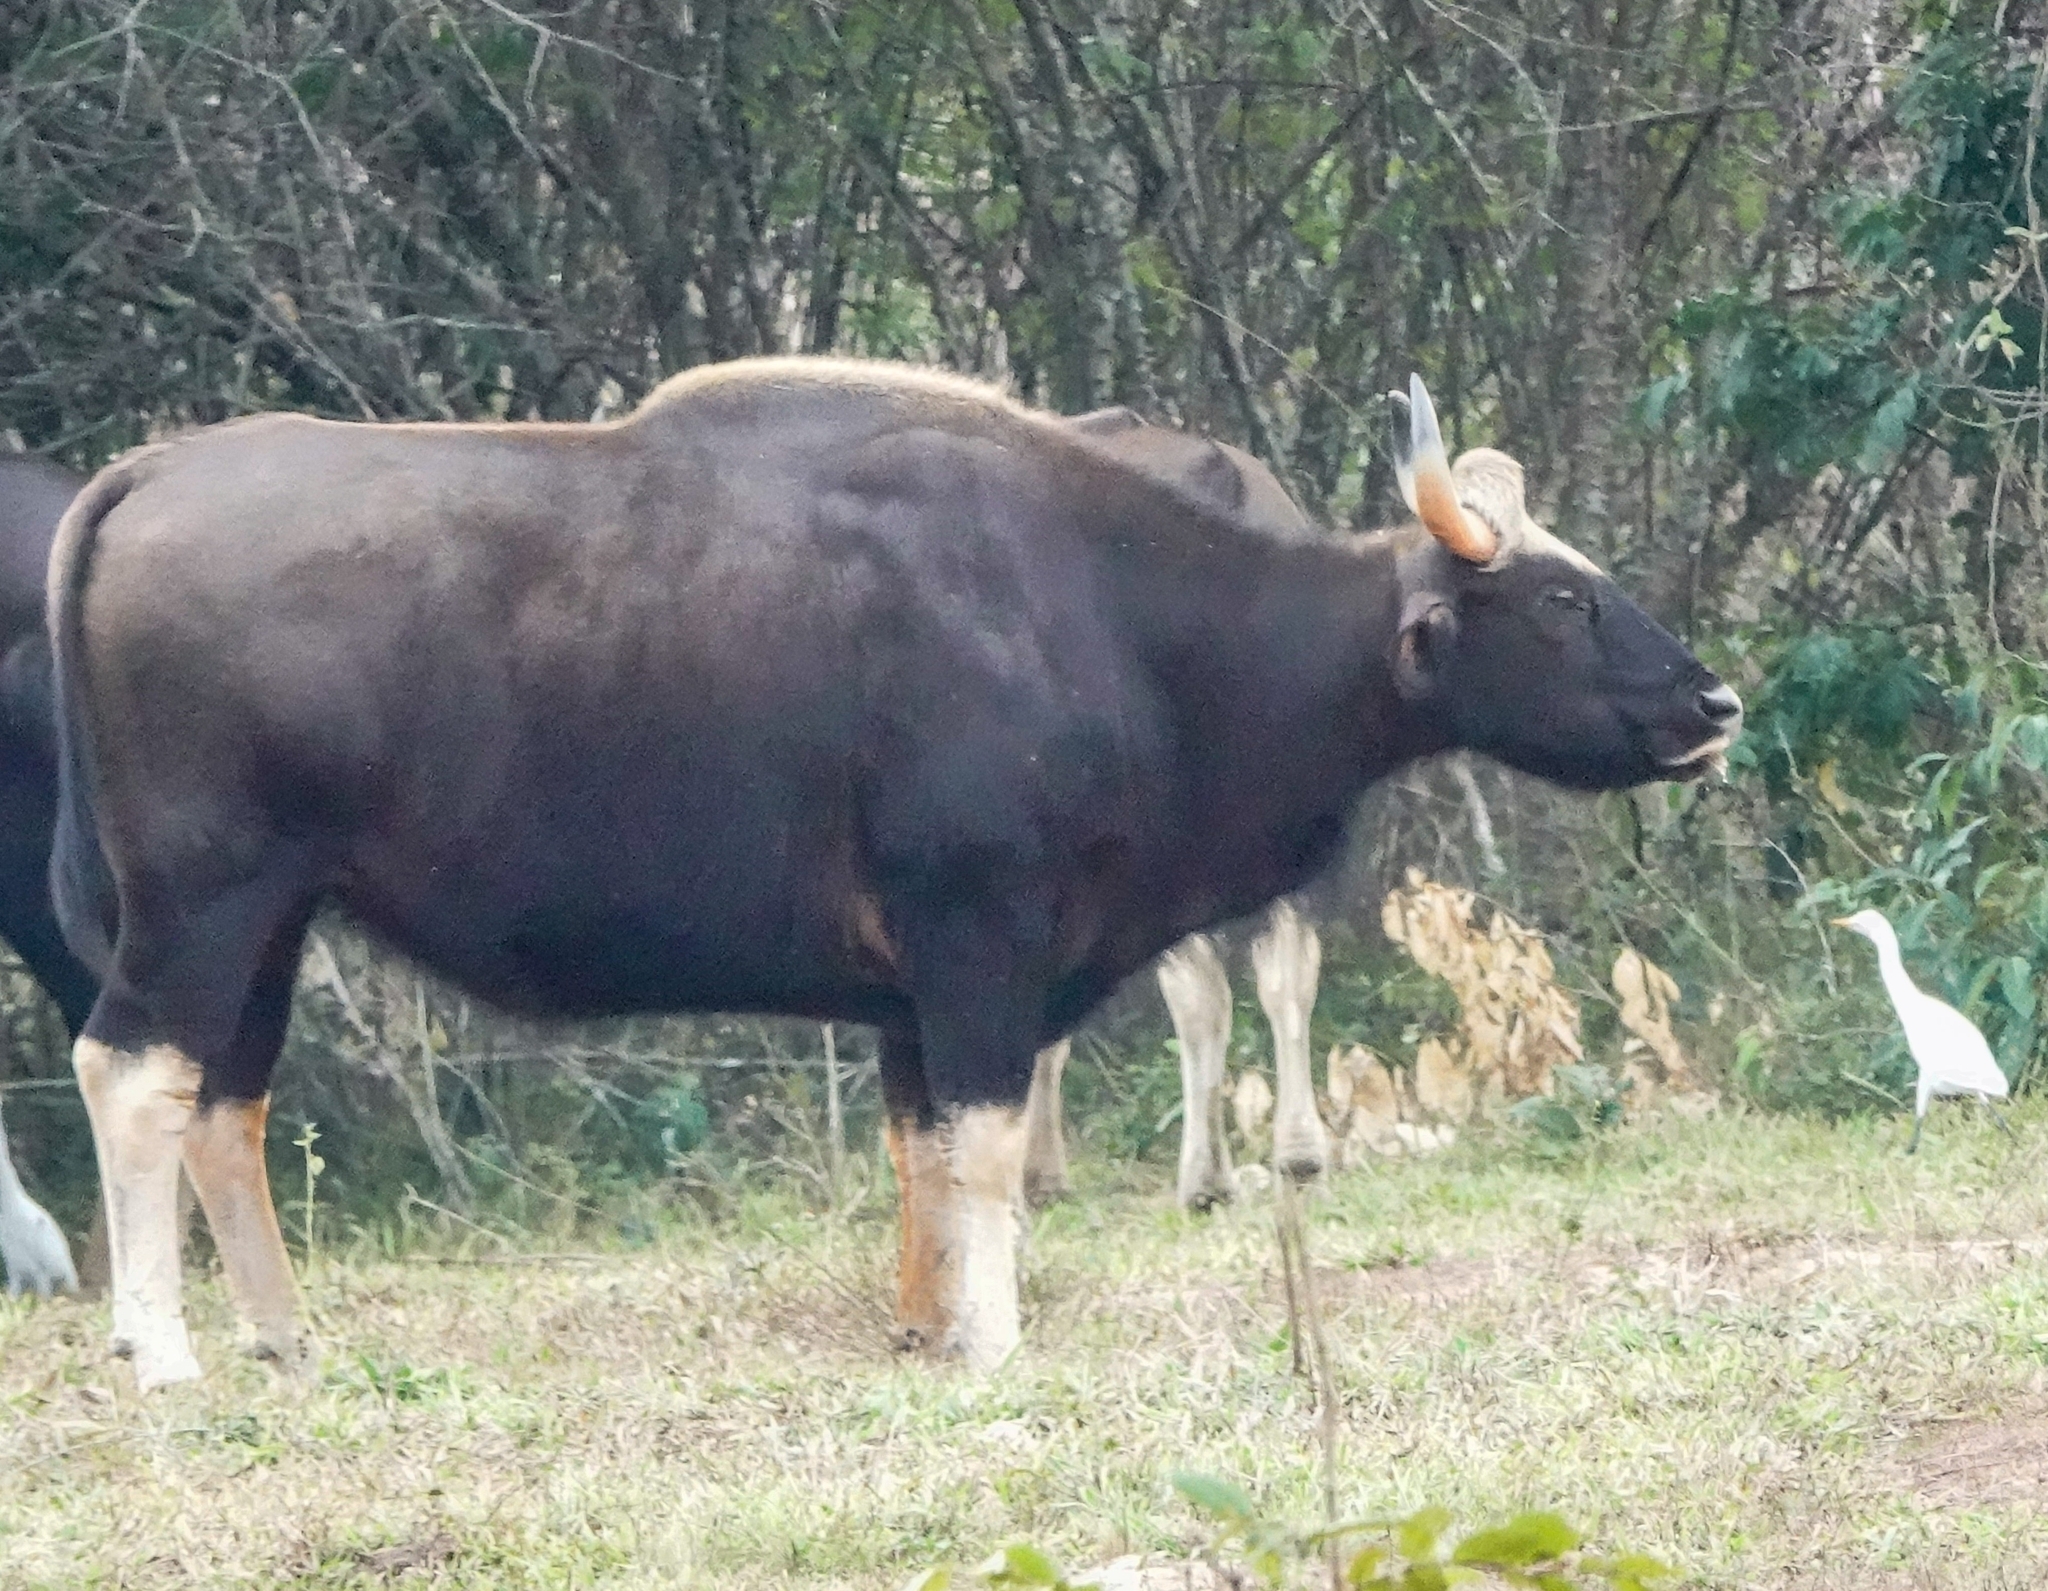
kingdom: Animalia
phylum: Chordata
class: Mammalia
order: Artiodactyla
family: Bovidae
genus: Bos
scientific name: Bos frontalis
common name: Gaur
